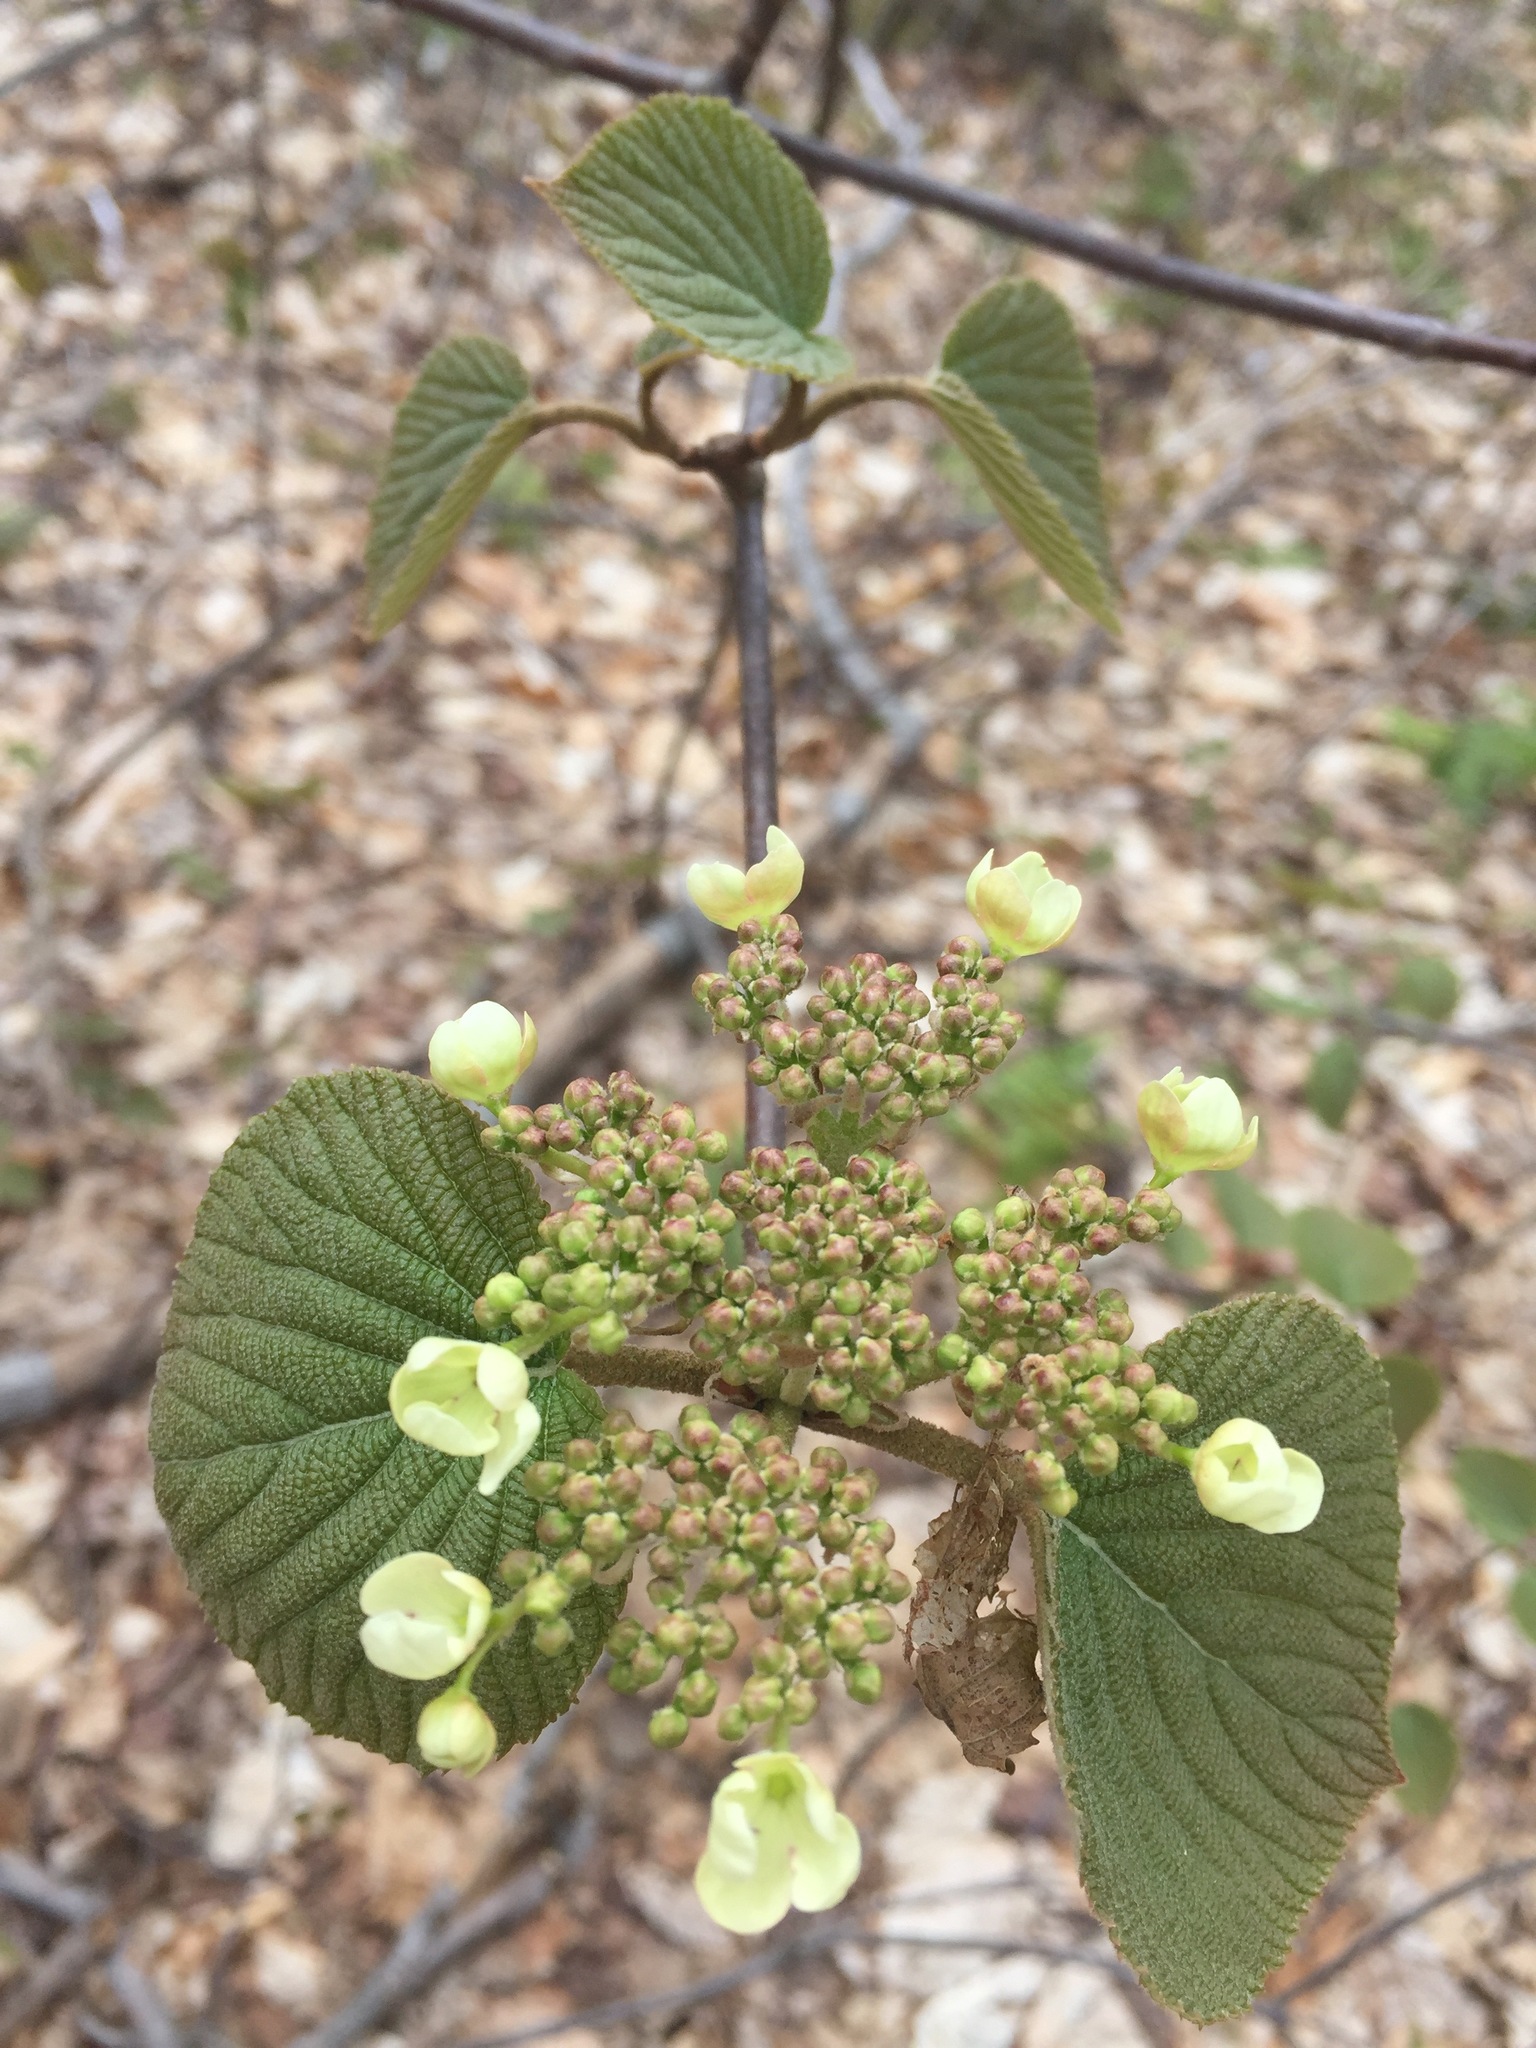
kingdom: Plantae
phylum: Tracheophyta
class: Magnoliopsida
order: Dipsacales
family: Viburnaceae
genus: Viburnum
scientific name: Viburnum lantanoides
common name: Hobblebush
